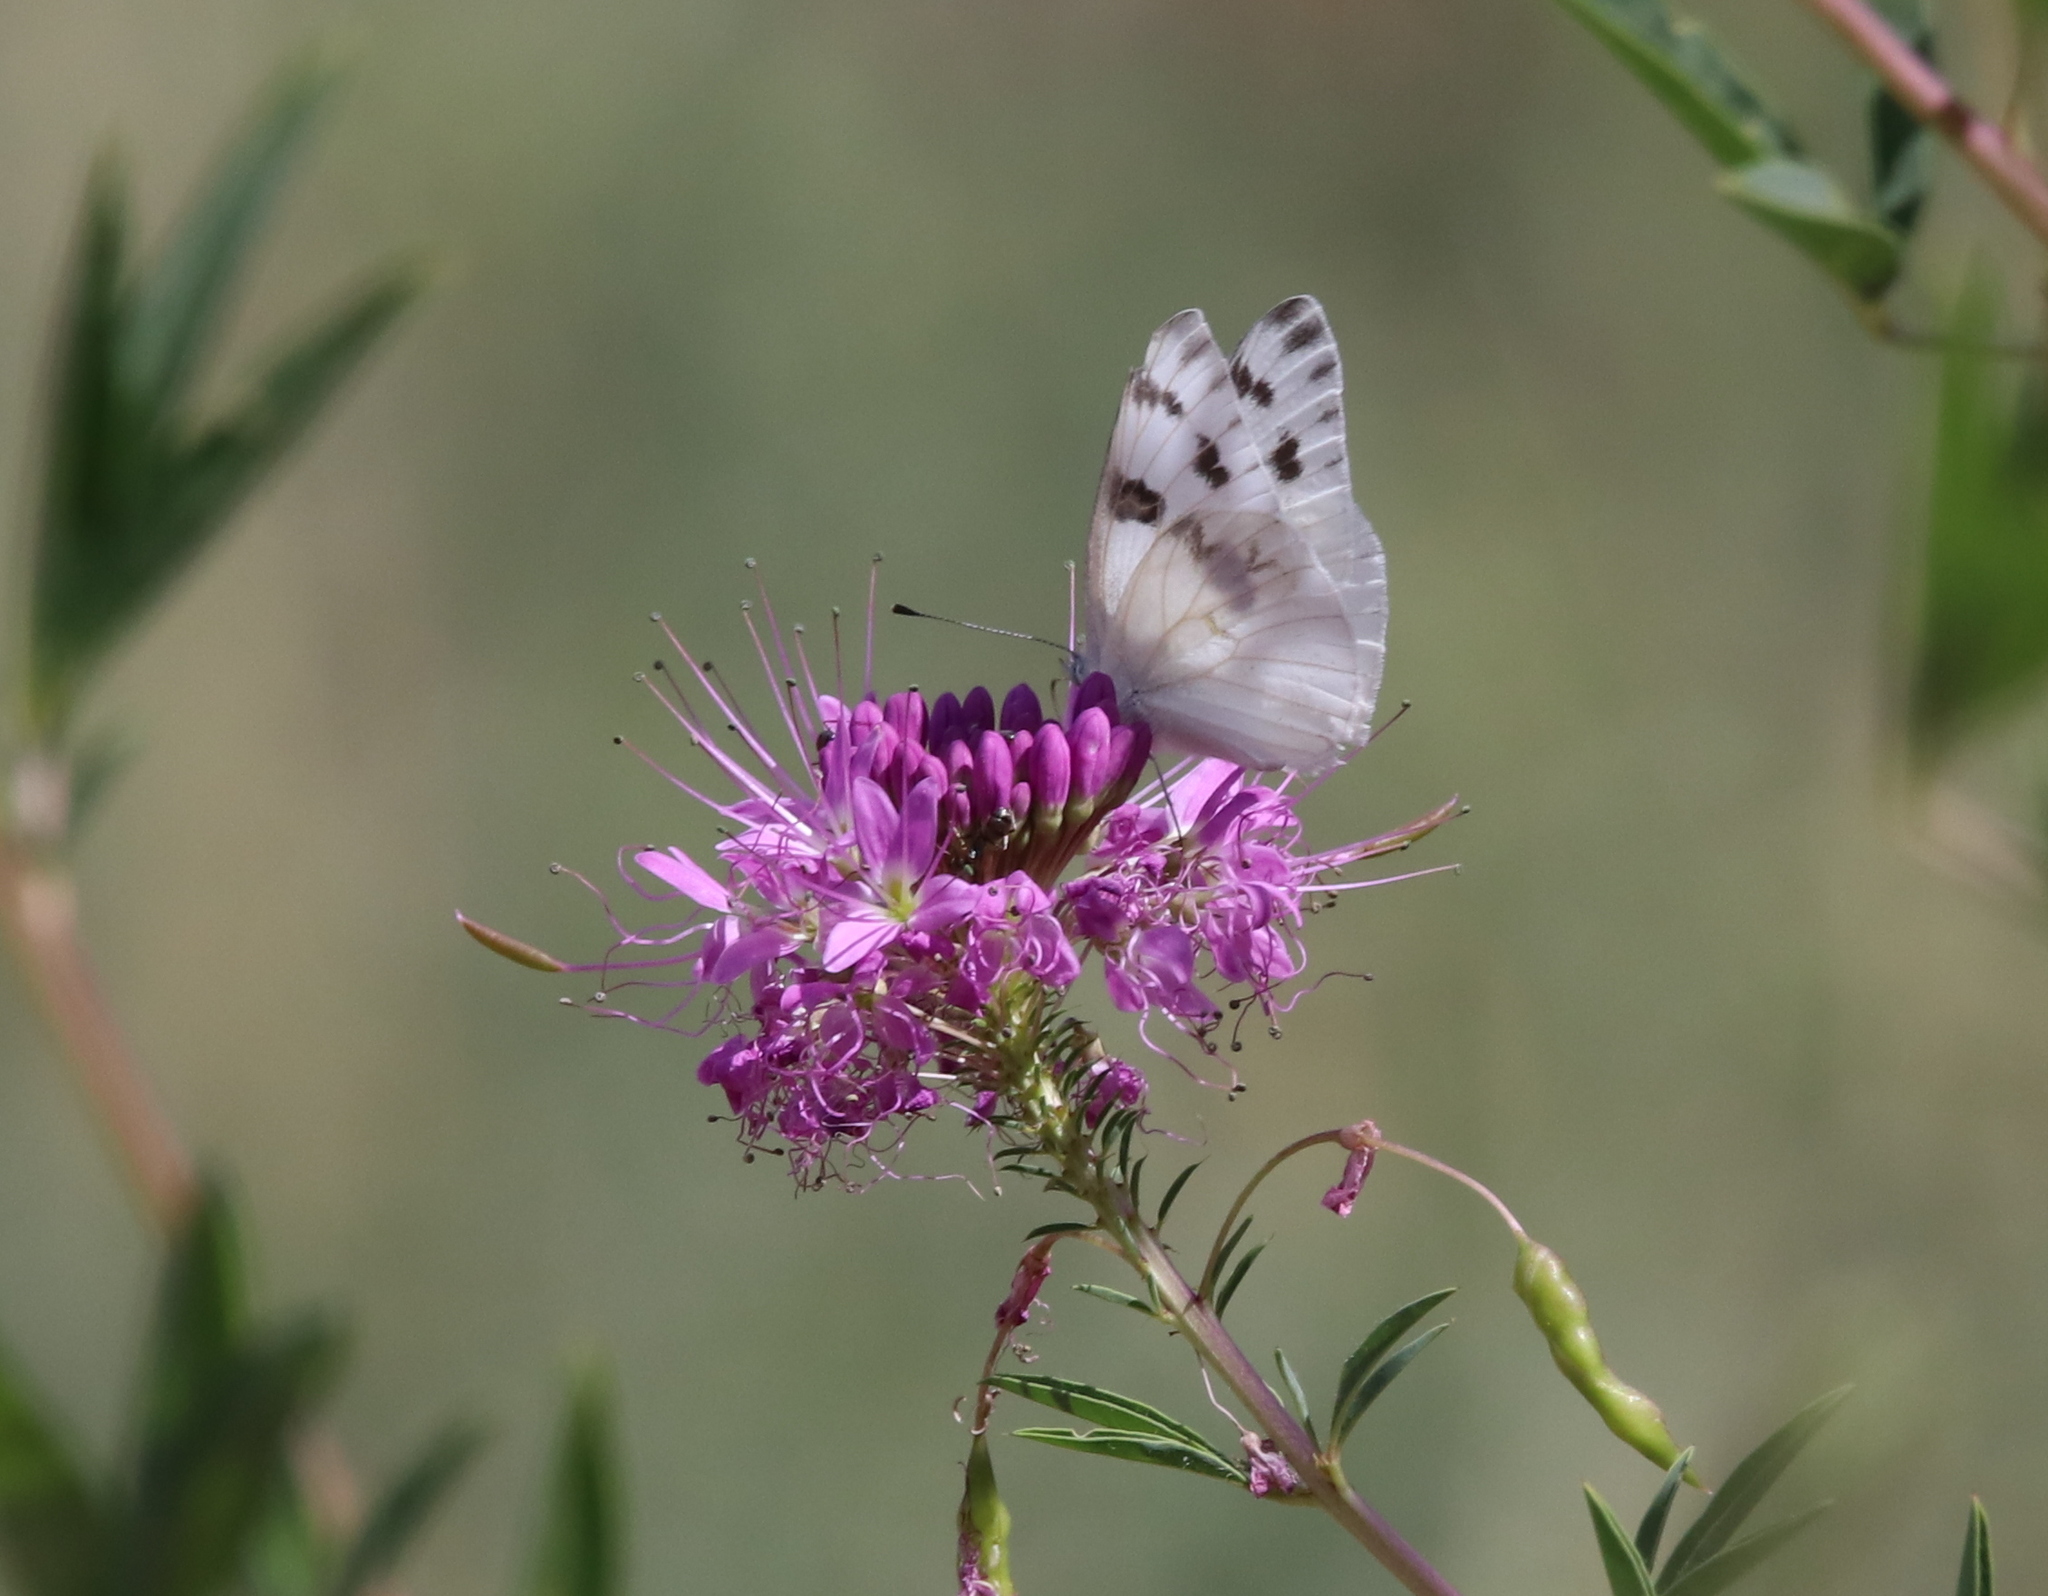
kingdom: Animalia
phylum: Arthropoda
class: Insecta
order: Lepidoptera
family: Pieridae
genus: Pontia
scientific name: Pontia protodice
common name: Checkered white
